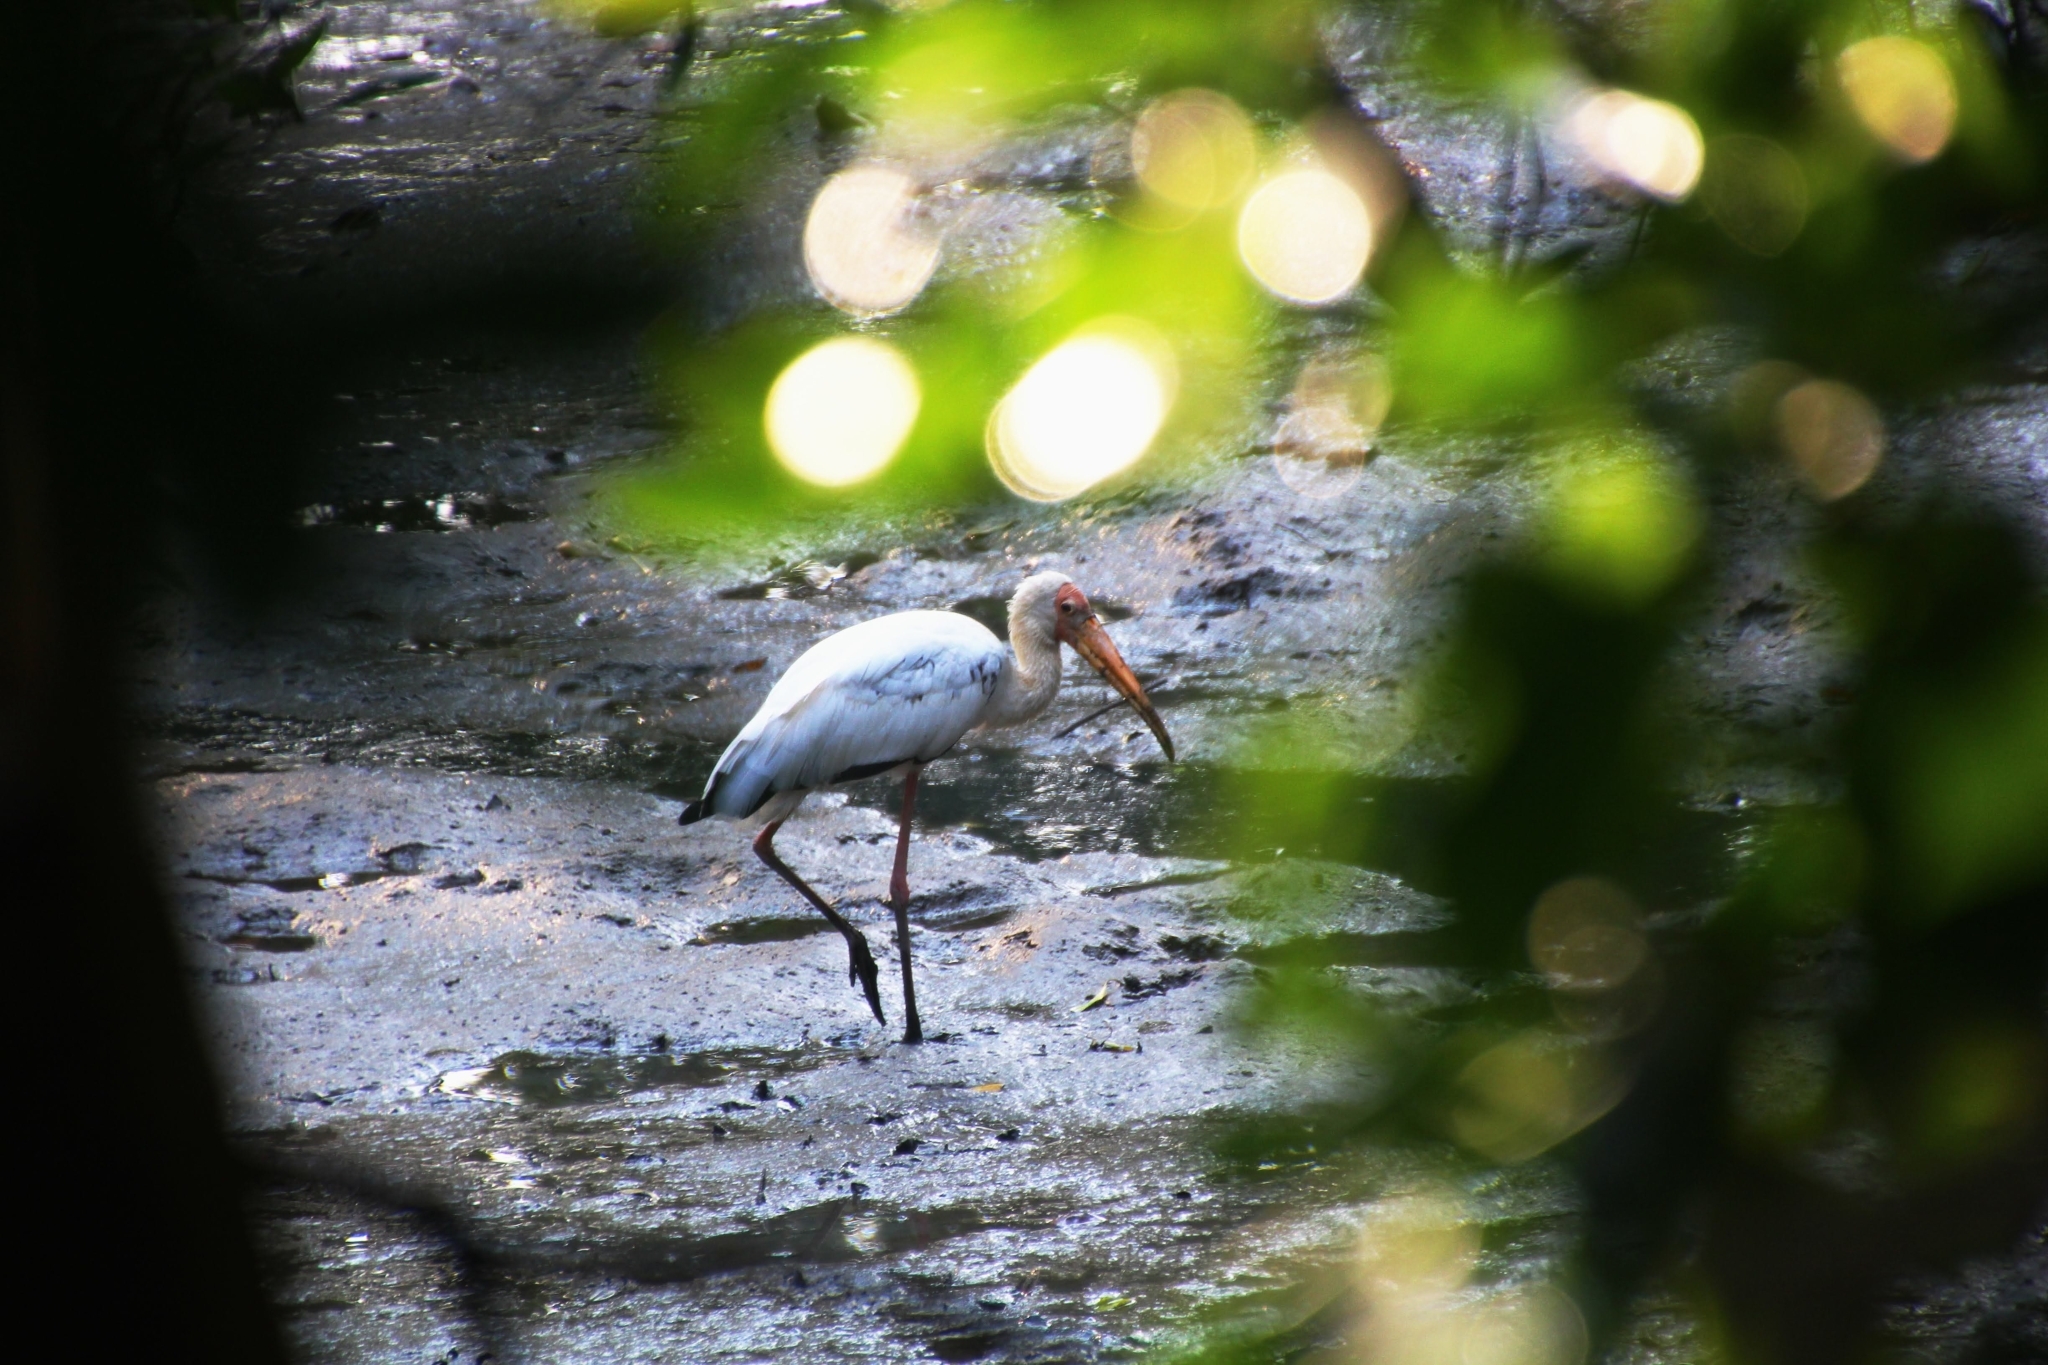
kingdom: Animalia
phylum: Chordata
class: Aves
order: Ciconiiformes
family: Ciconiidae
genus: Mycteria
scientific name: Mycteria
